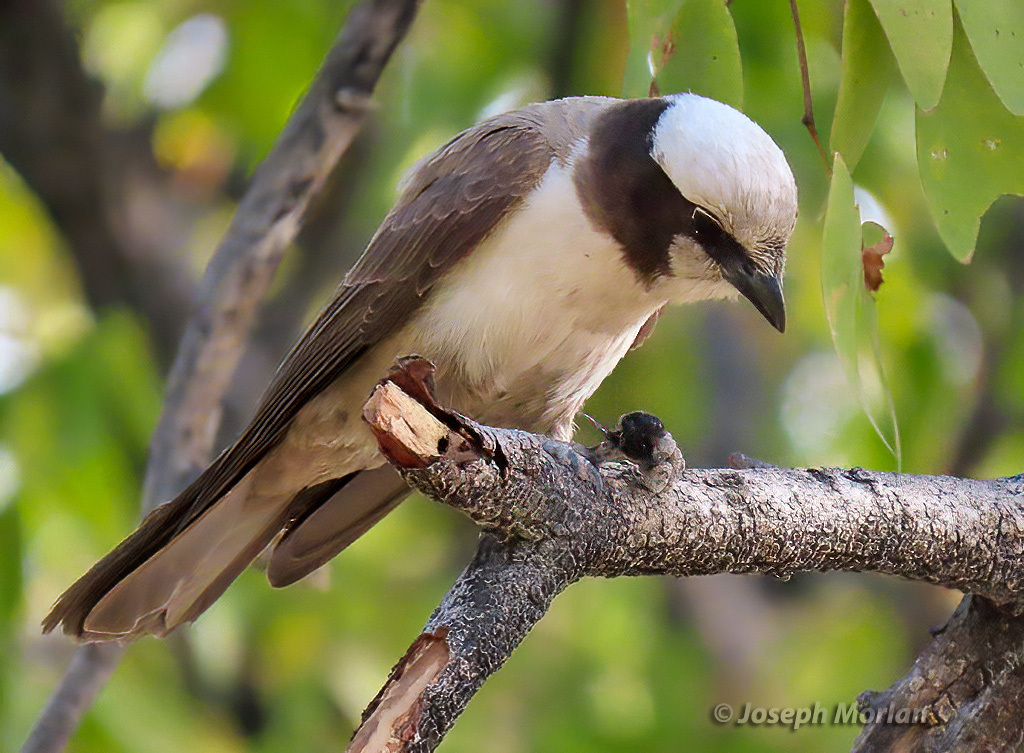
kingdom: Animalia
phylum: Chordata
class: Aves
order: Passeriformes
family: Laniidae
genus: Eurocephalus
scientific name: Eurocephalus anguitimens
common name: Southern white-crowned shrike
